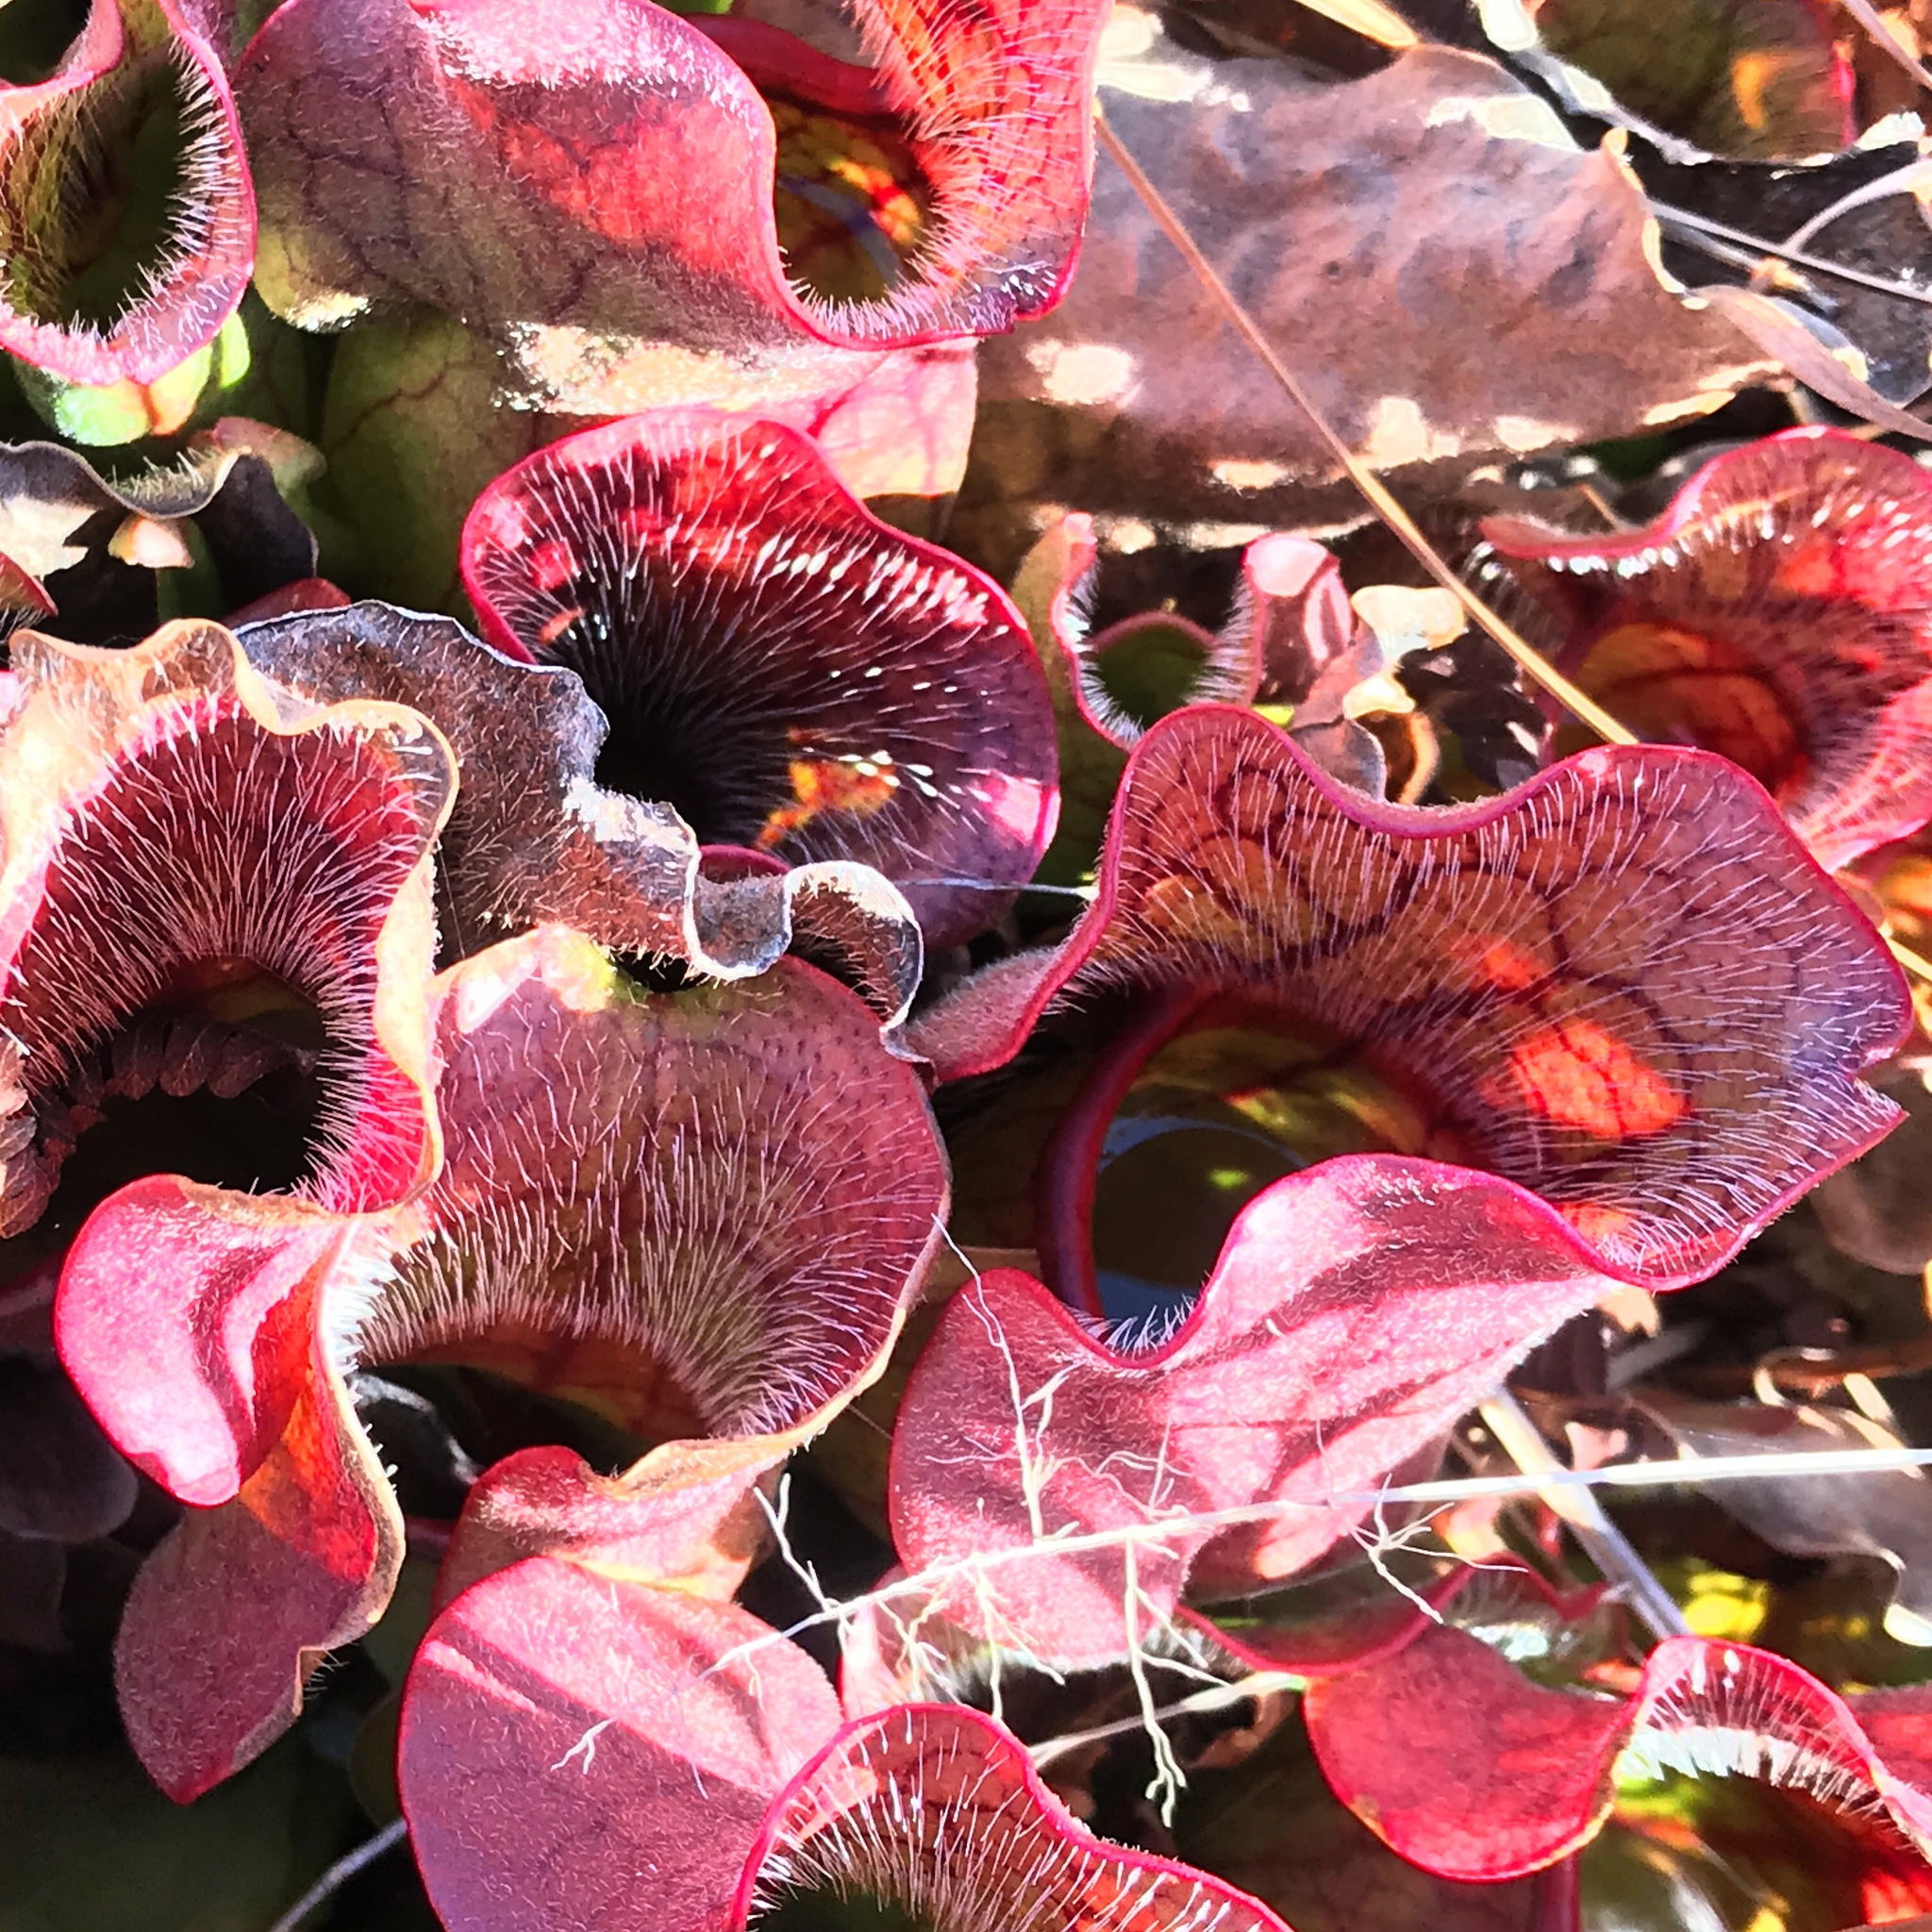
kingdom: Plantae
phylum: Tracheophyta
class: Magnoliopsida
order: Ericales
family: Sarraceniaceae
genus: Sarracenia
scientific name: Sarracenia purpurea
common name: Pitcherplant
